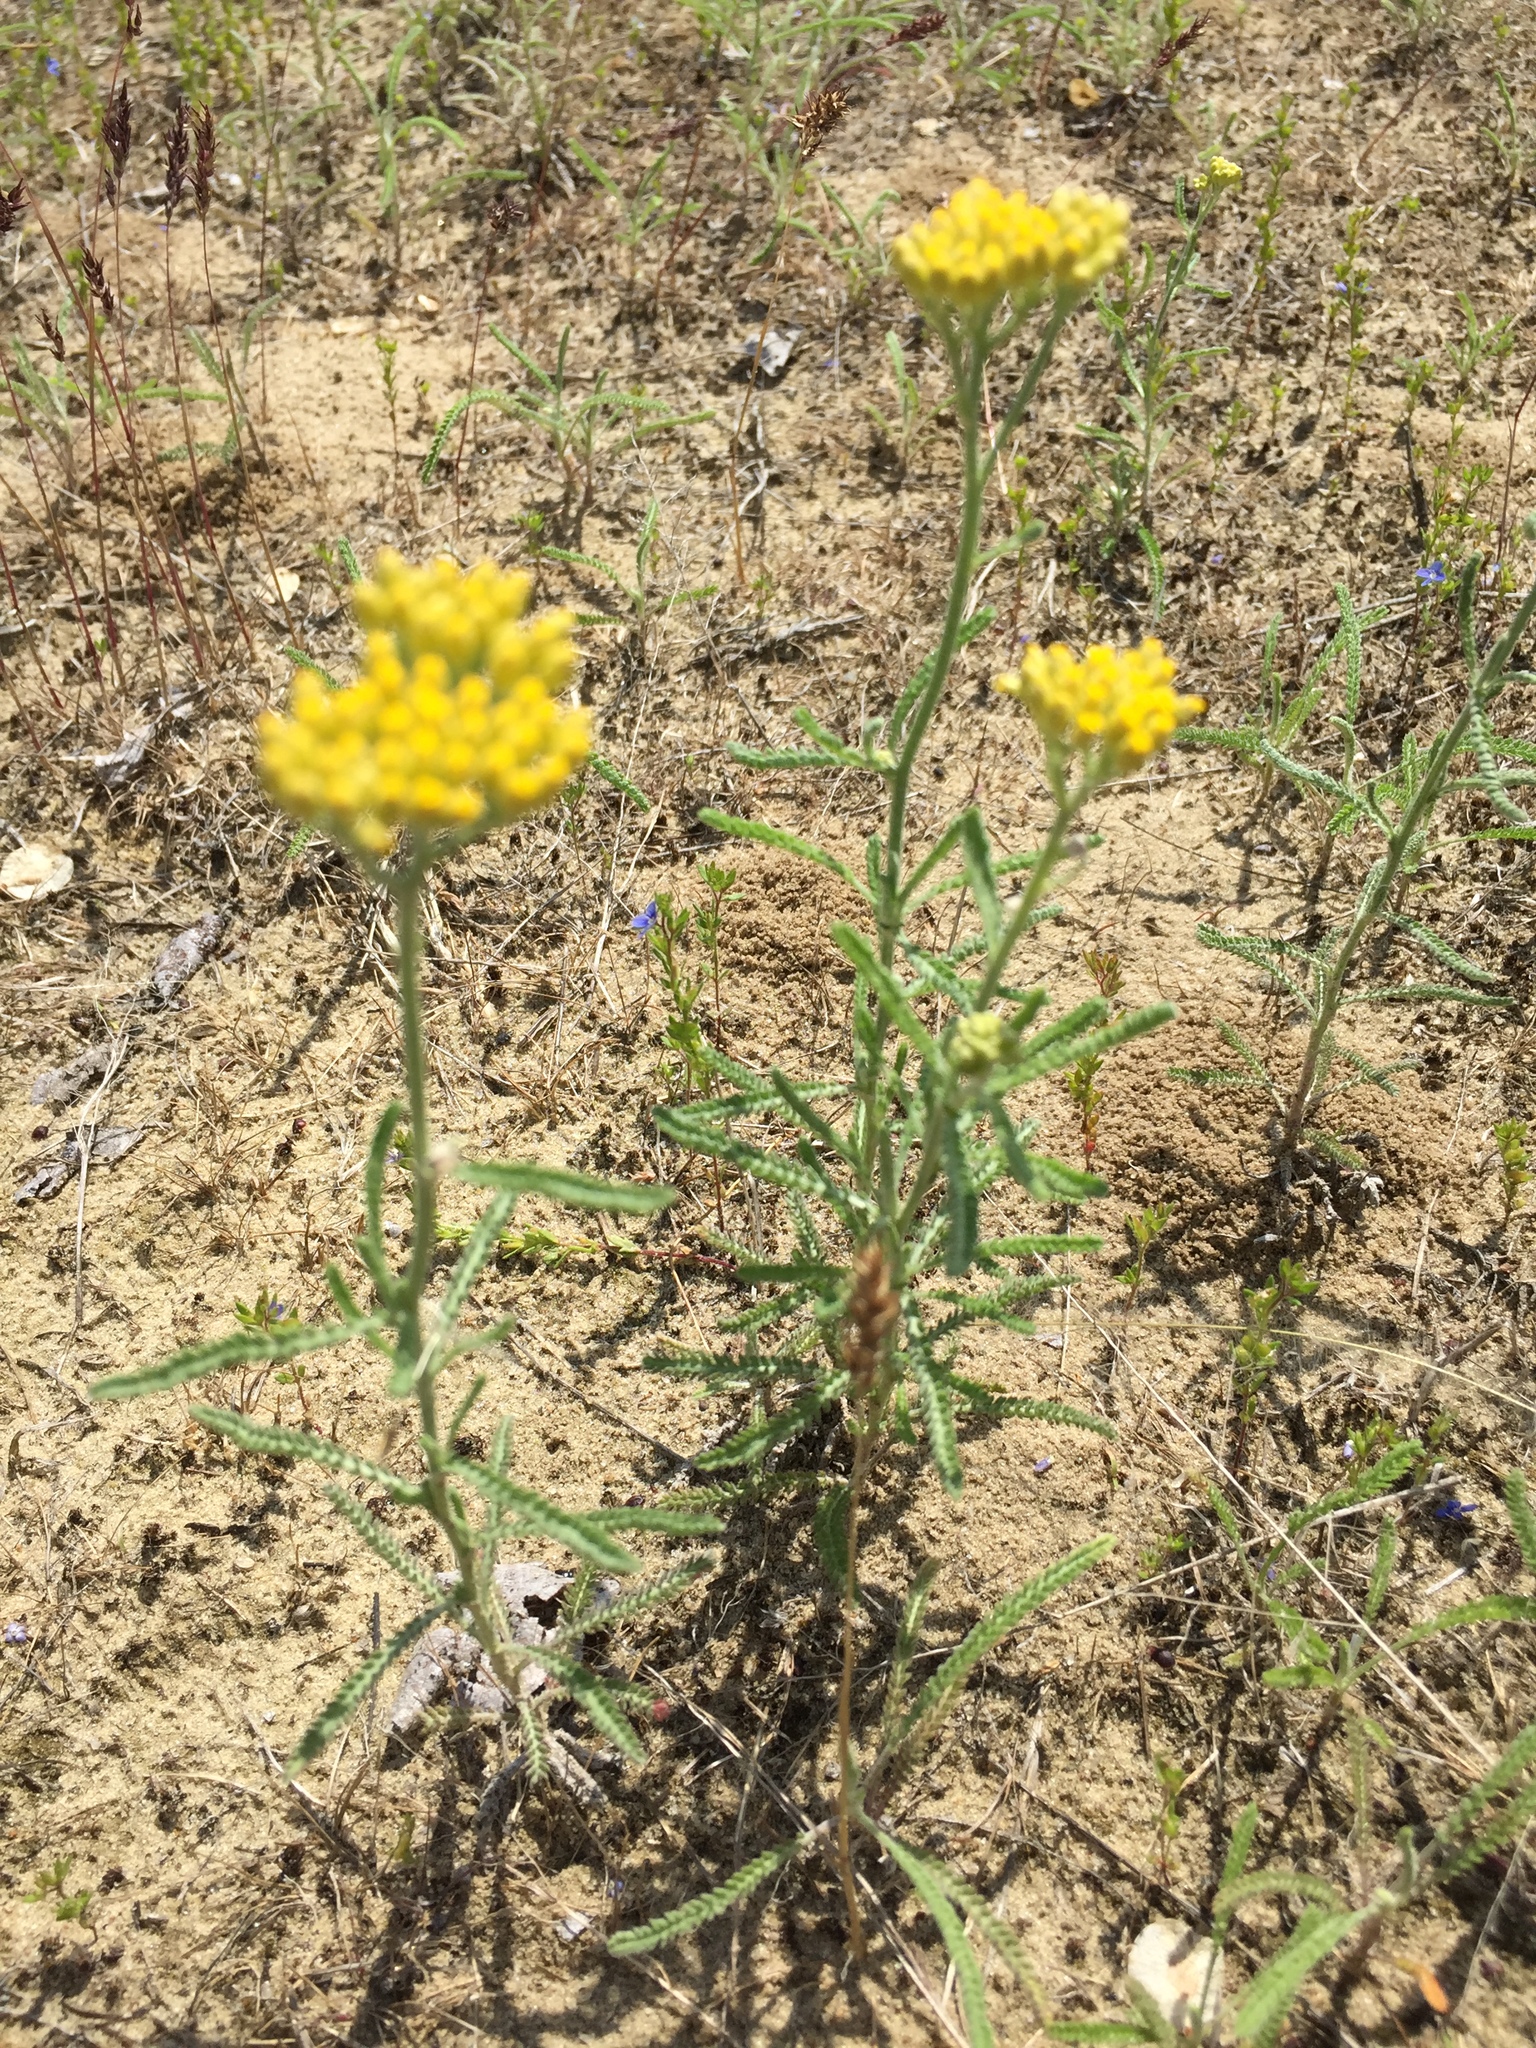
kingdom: Plantae
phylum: Tracheophyta
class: Magnoliopsida
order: Asterales
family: Asteraceae
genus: Achillea
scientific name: Achillea micrantha
